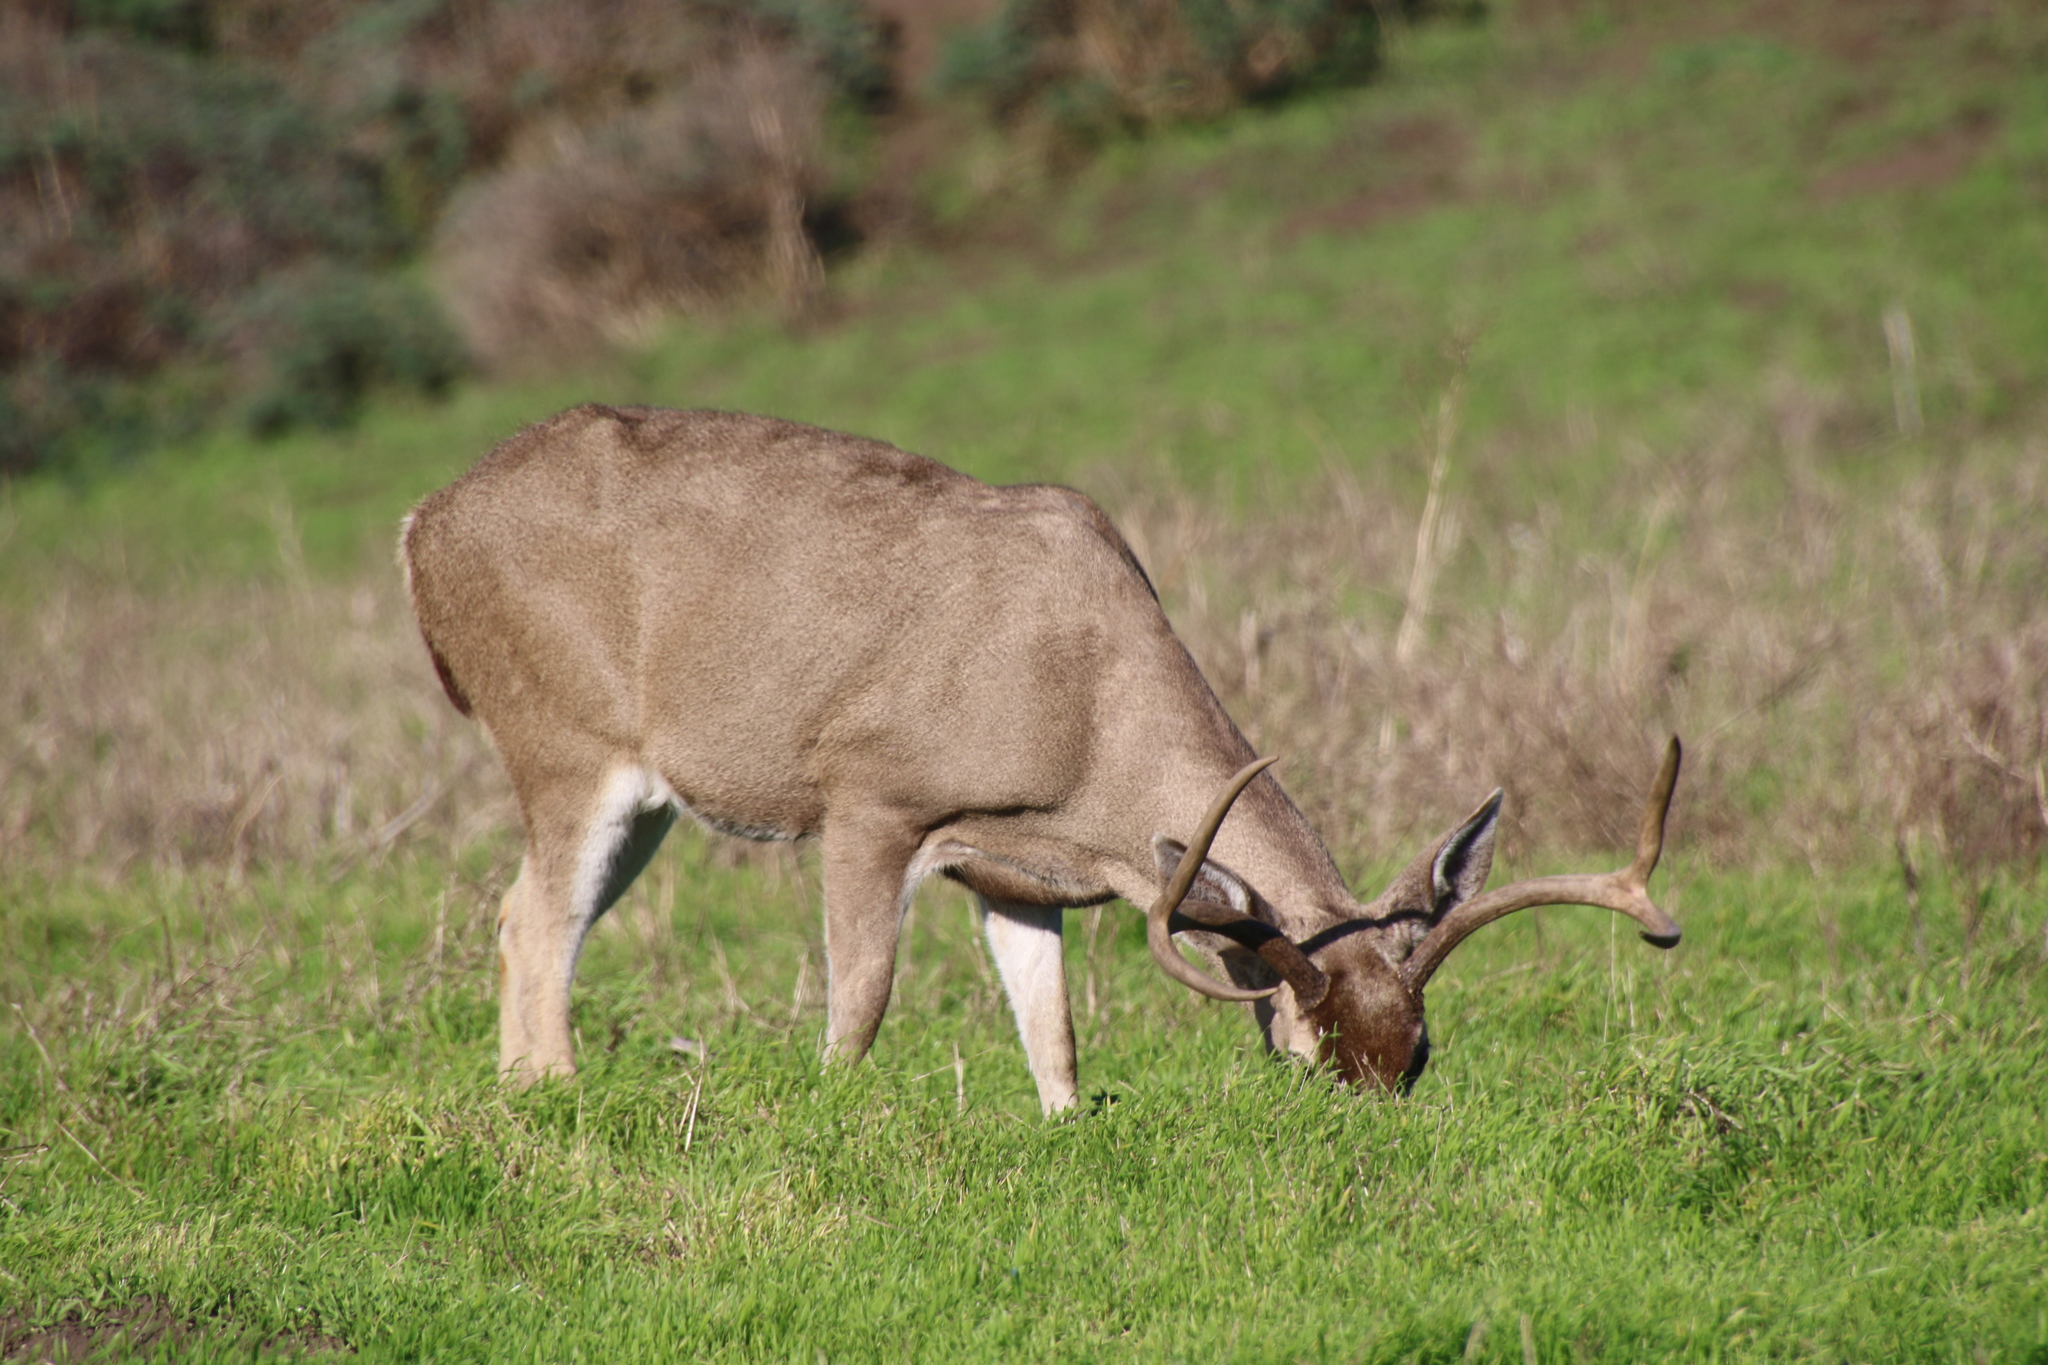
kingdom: Animalia
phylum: Chordata
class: Mammalia
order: Artiodactyla
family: Cervidae
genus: Odocoileus
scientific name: Odocoileus hemionus
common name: Mule deer
